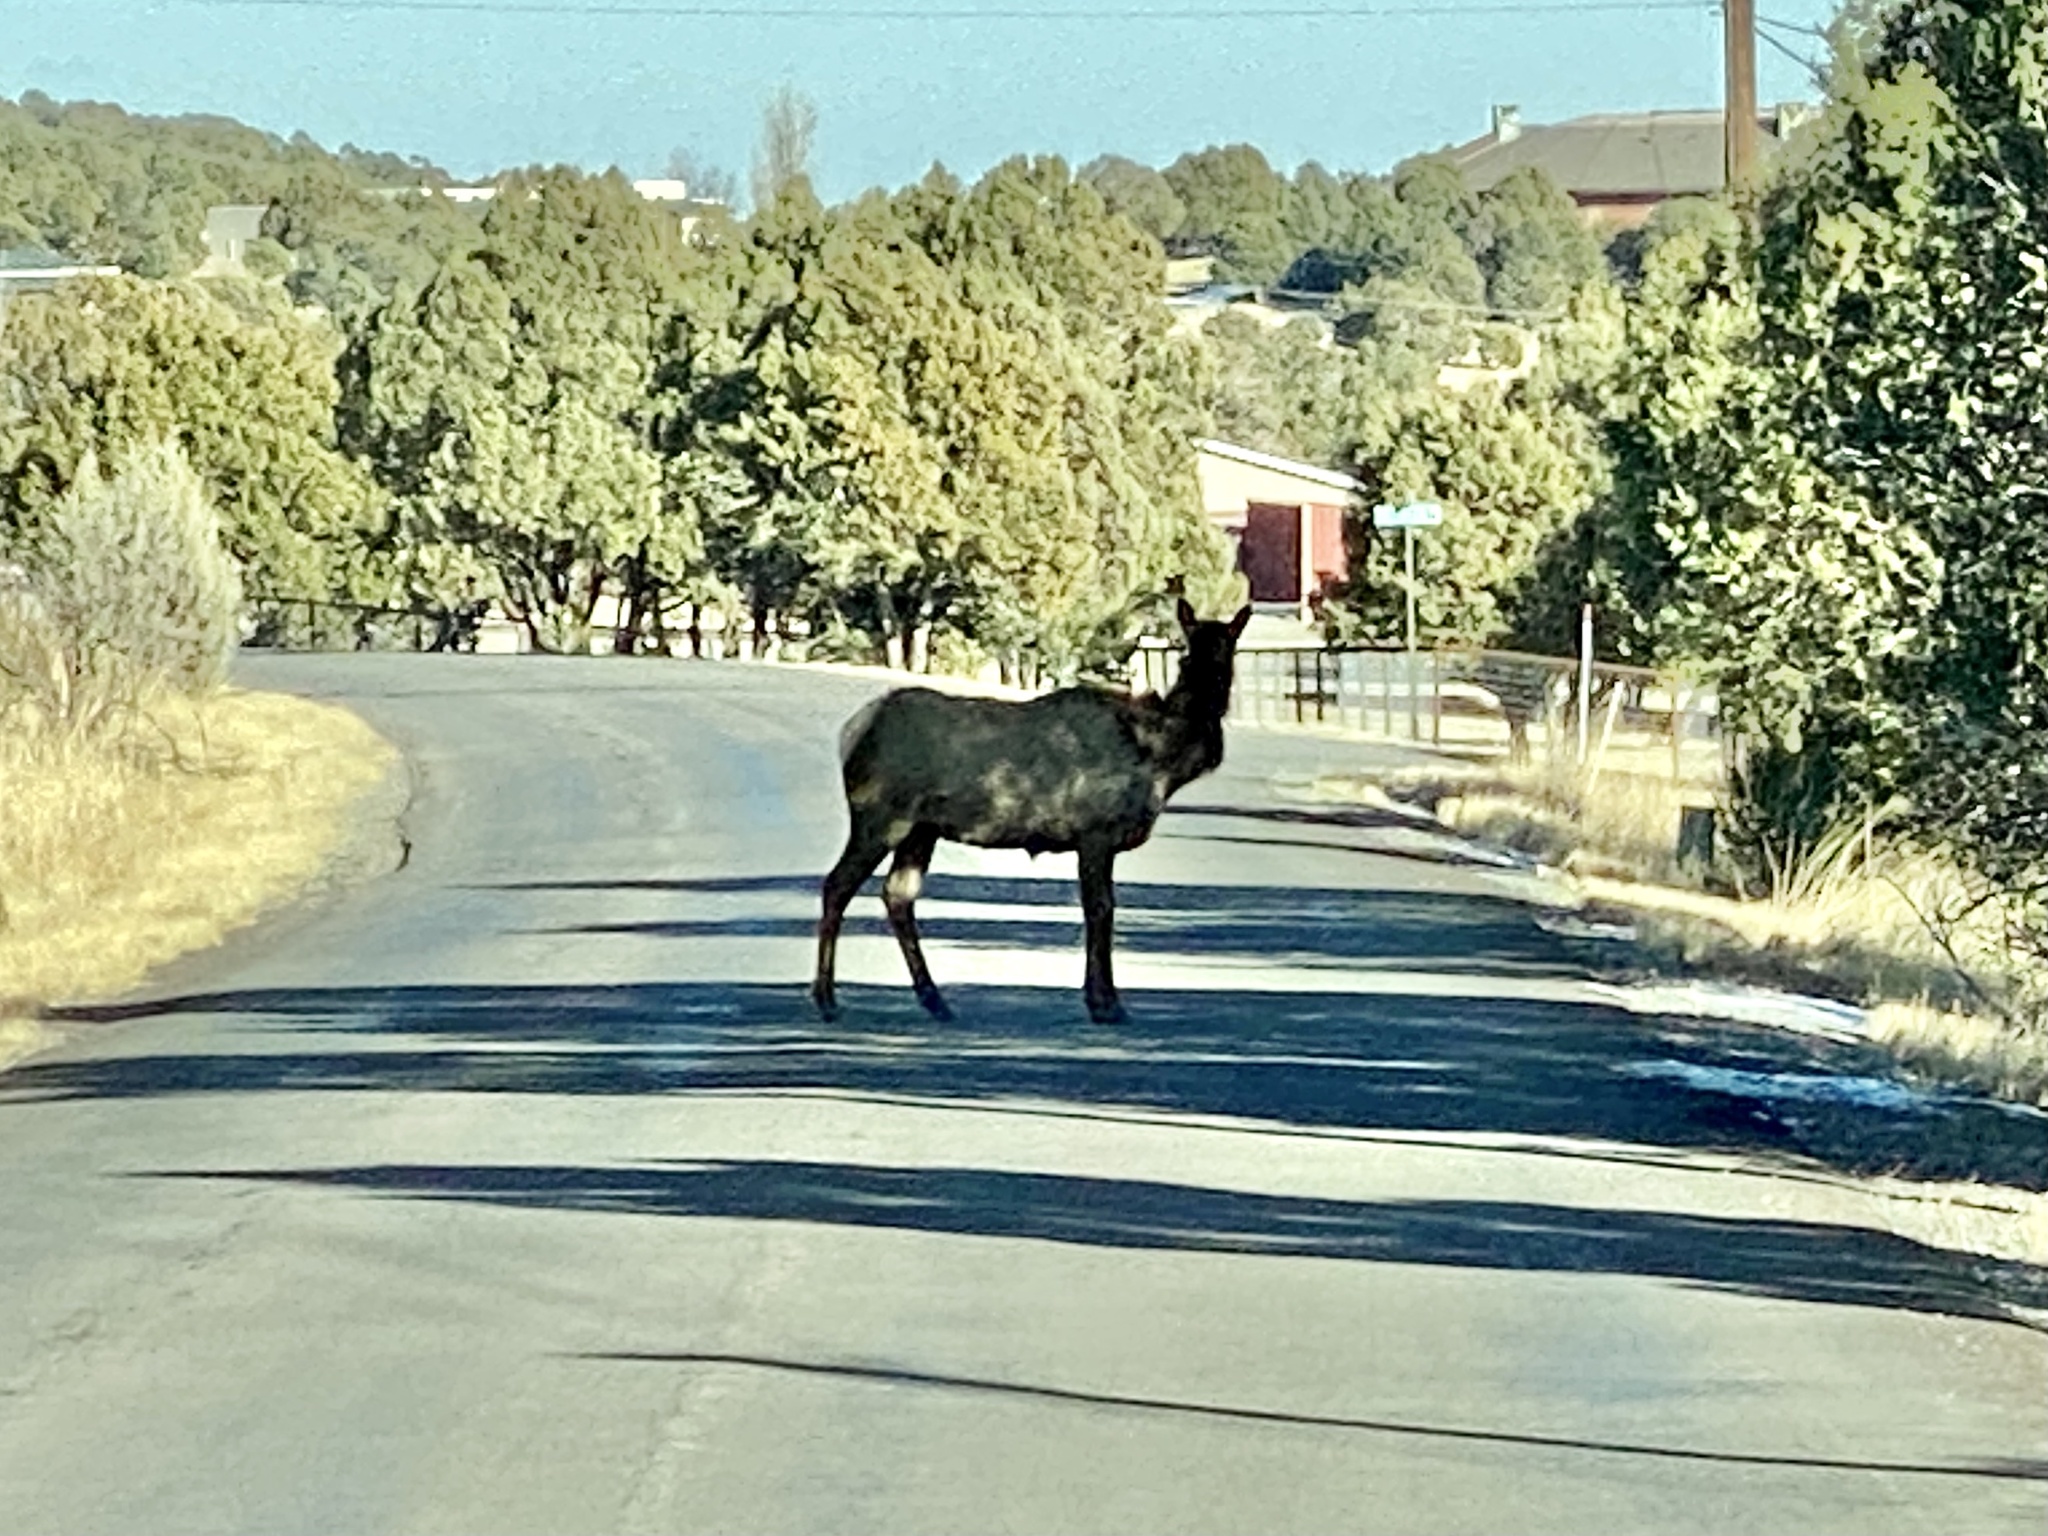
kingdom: Animalia
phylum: Chordata
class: Mammalia
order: Artiodactyla
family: Cervidae
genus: Cervus
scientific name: Cervus elaphus
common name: Red deer
